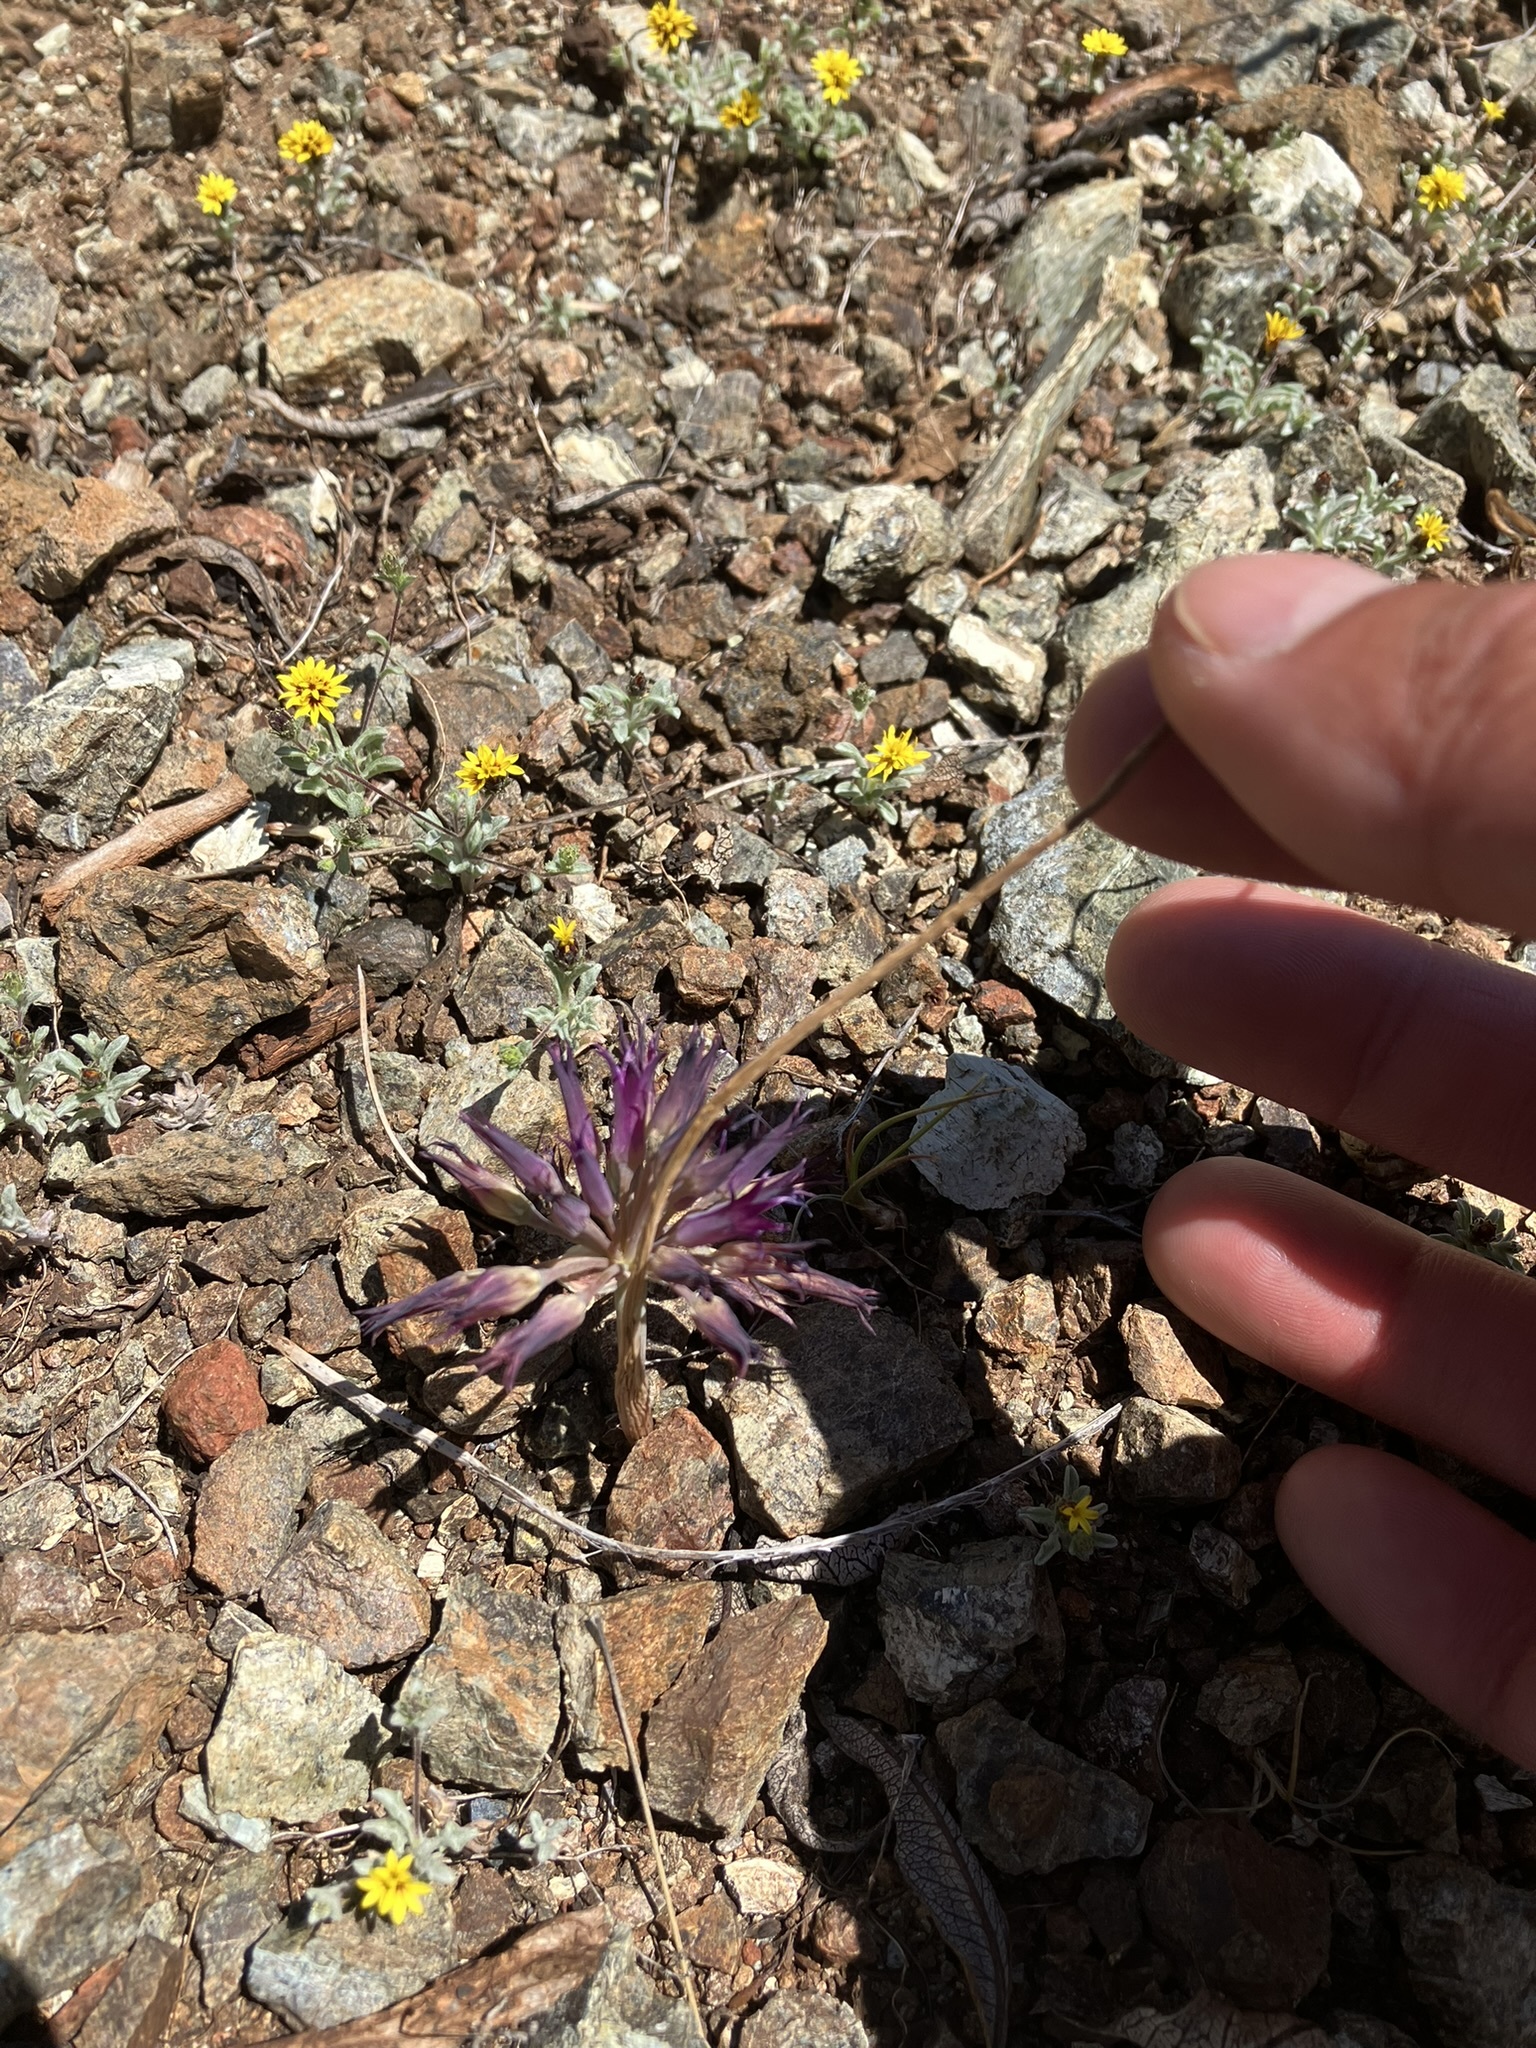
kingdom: Plantae
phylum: Tracheophyta
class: Liliopsida
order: Asparagales
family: Amaryllidaceae
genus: Allium
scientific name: Allium sharsmithiae
